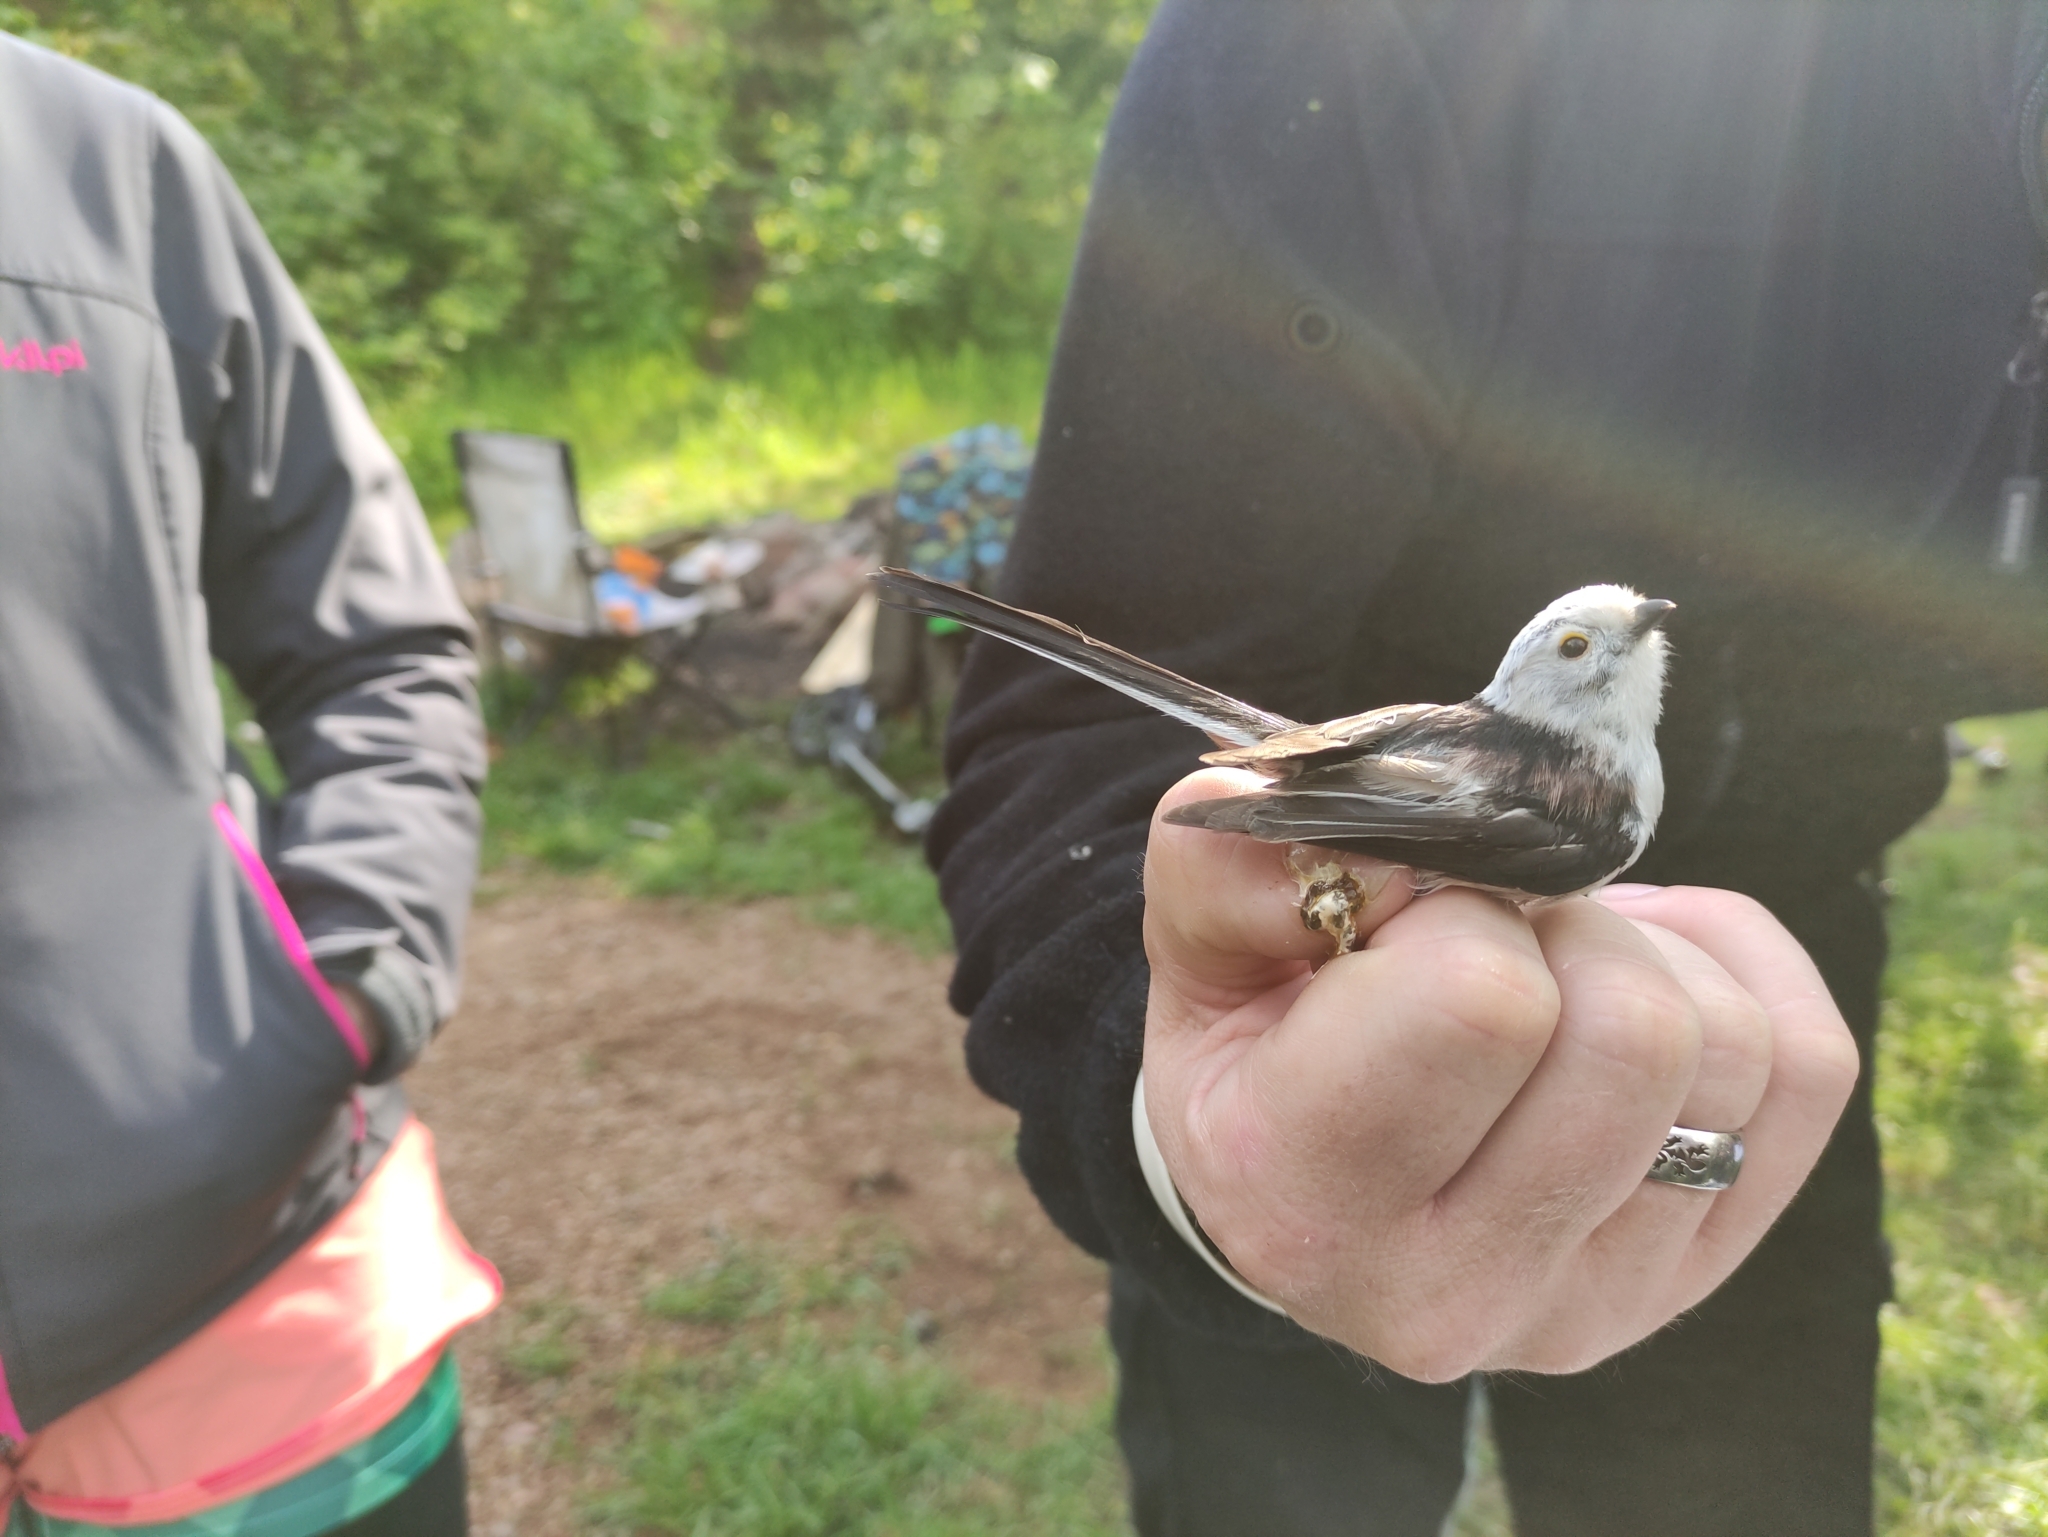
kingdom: Animalia
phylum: Chordata
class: Aves
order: Passeriformes
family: Aegithalidae
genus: Aegithalos
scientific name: Aegithalos caudatus
